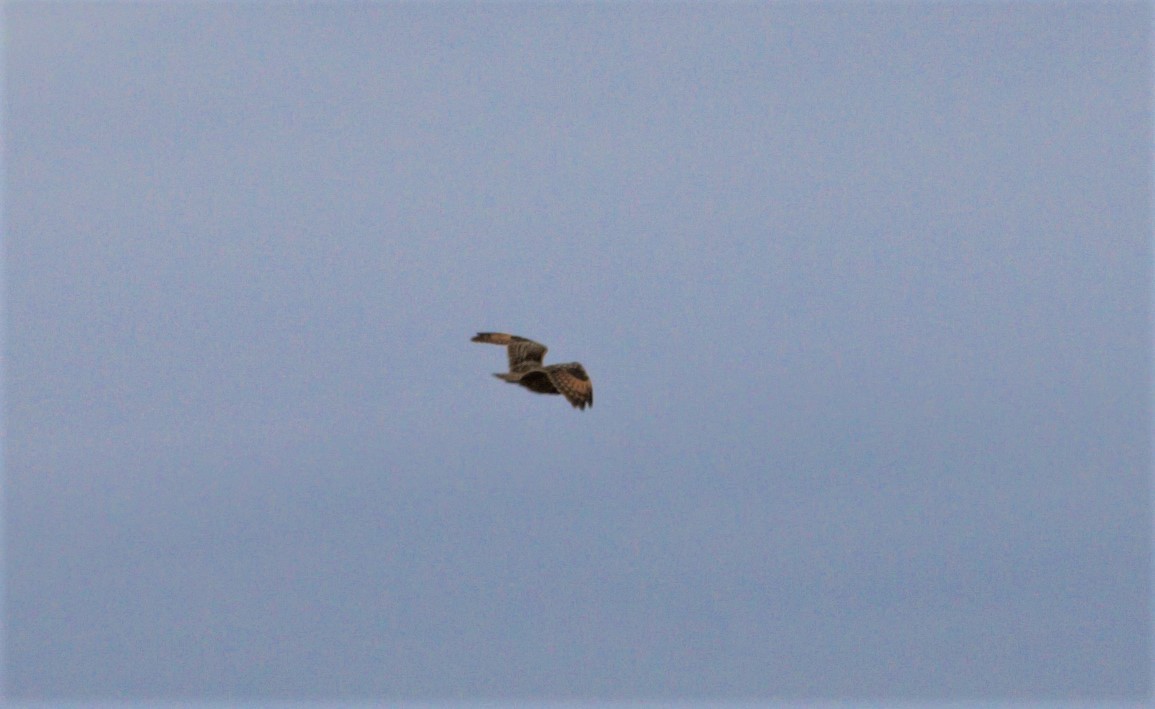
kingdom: Animalia
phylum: Chordata
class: Aves
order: Strigiformes
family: Strigidae
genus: Asio
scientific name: Asio flammeus
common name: Short-eared owl
